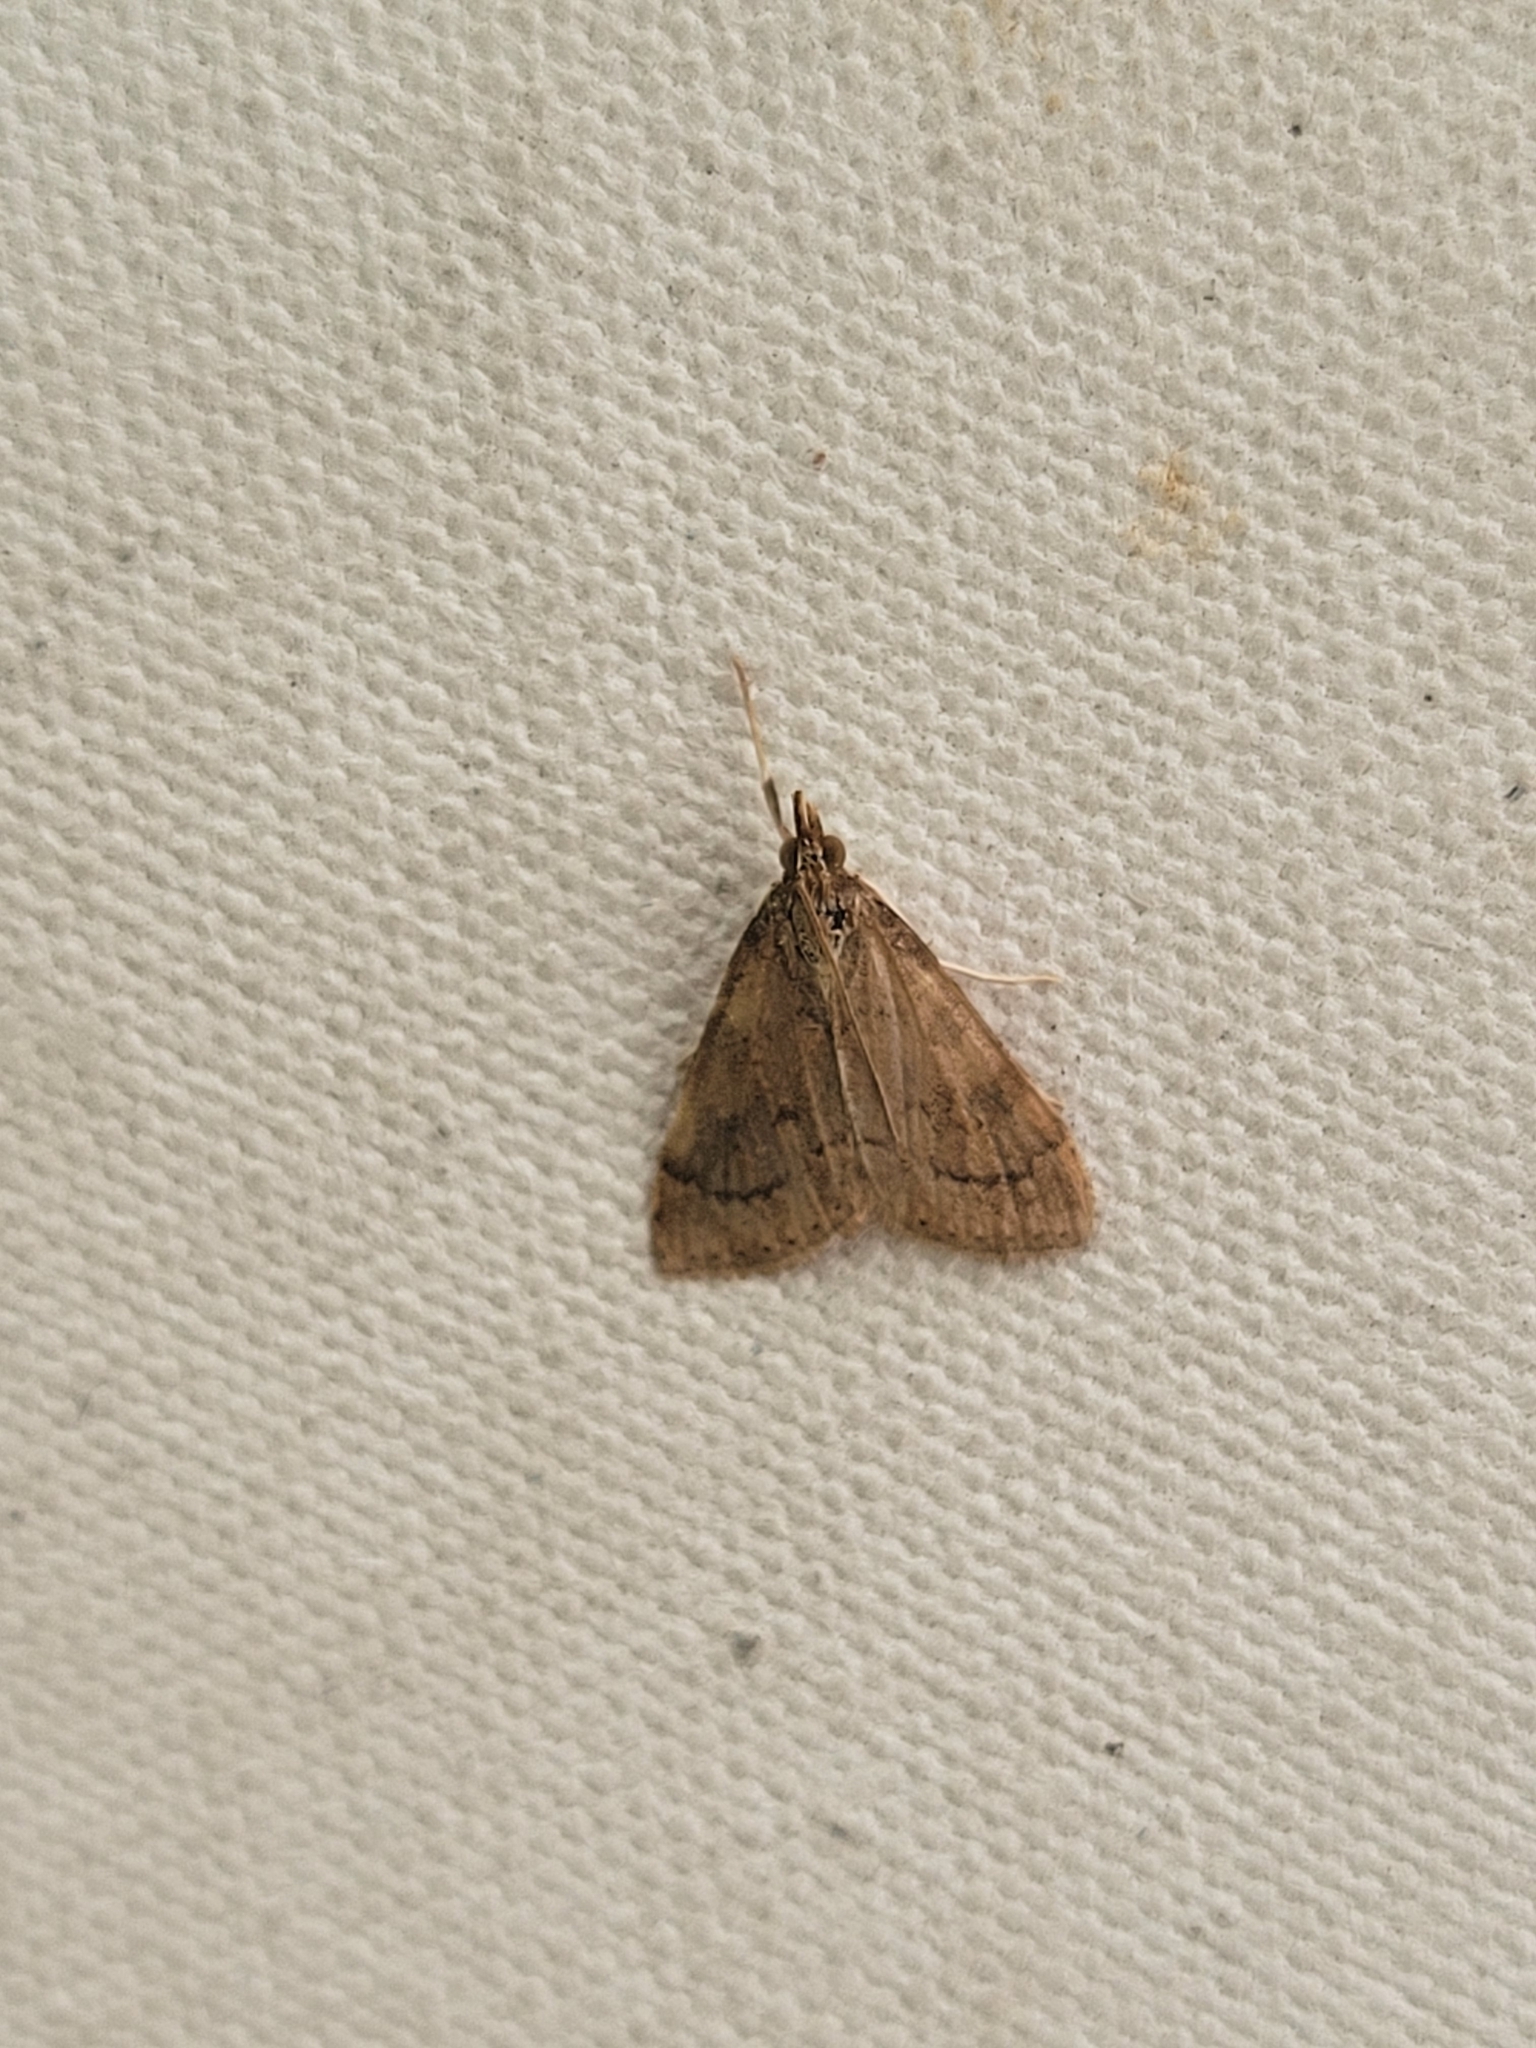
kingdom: Animalia
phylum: Arthropoda
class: Insecta
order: Lepidoptera
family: Crambidae
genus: Udea
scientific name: Udea rubigalis
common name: Celery leaftier moth
